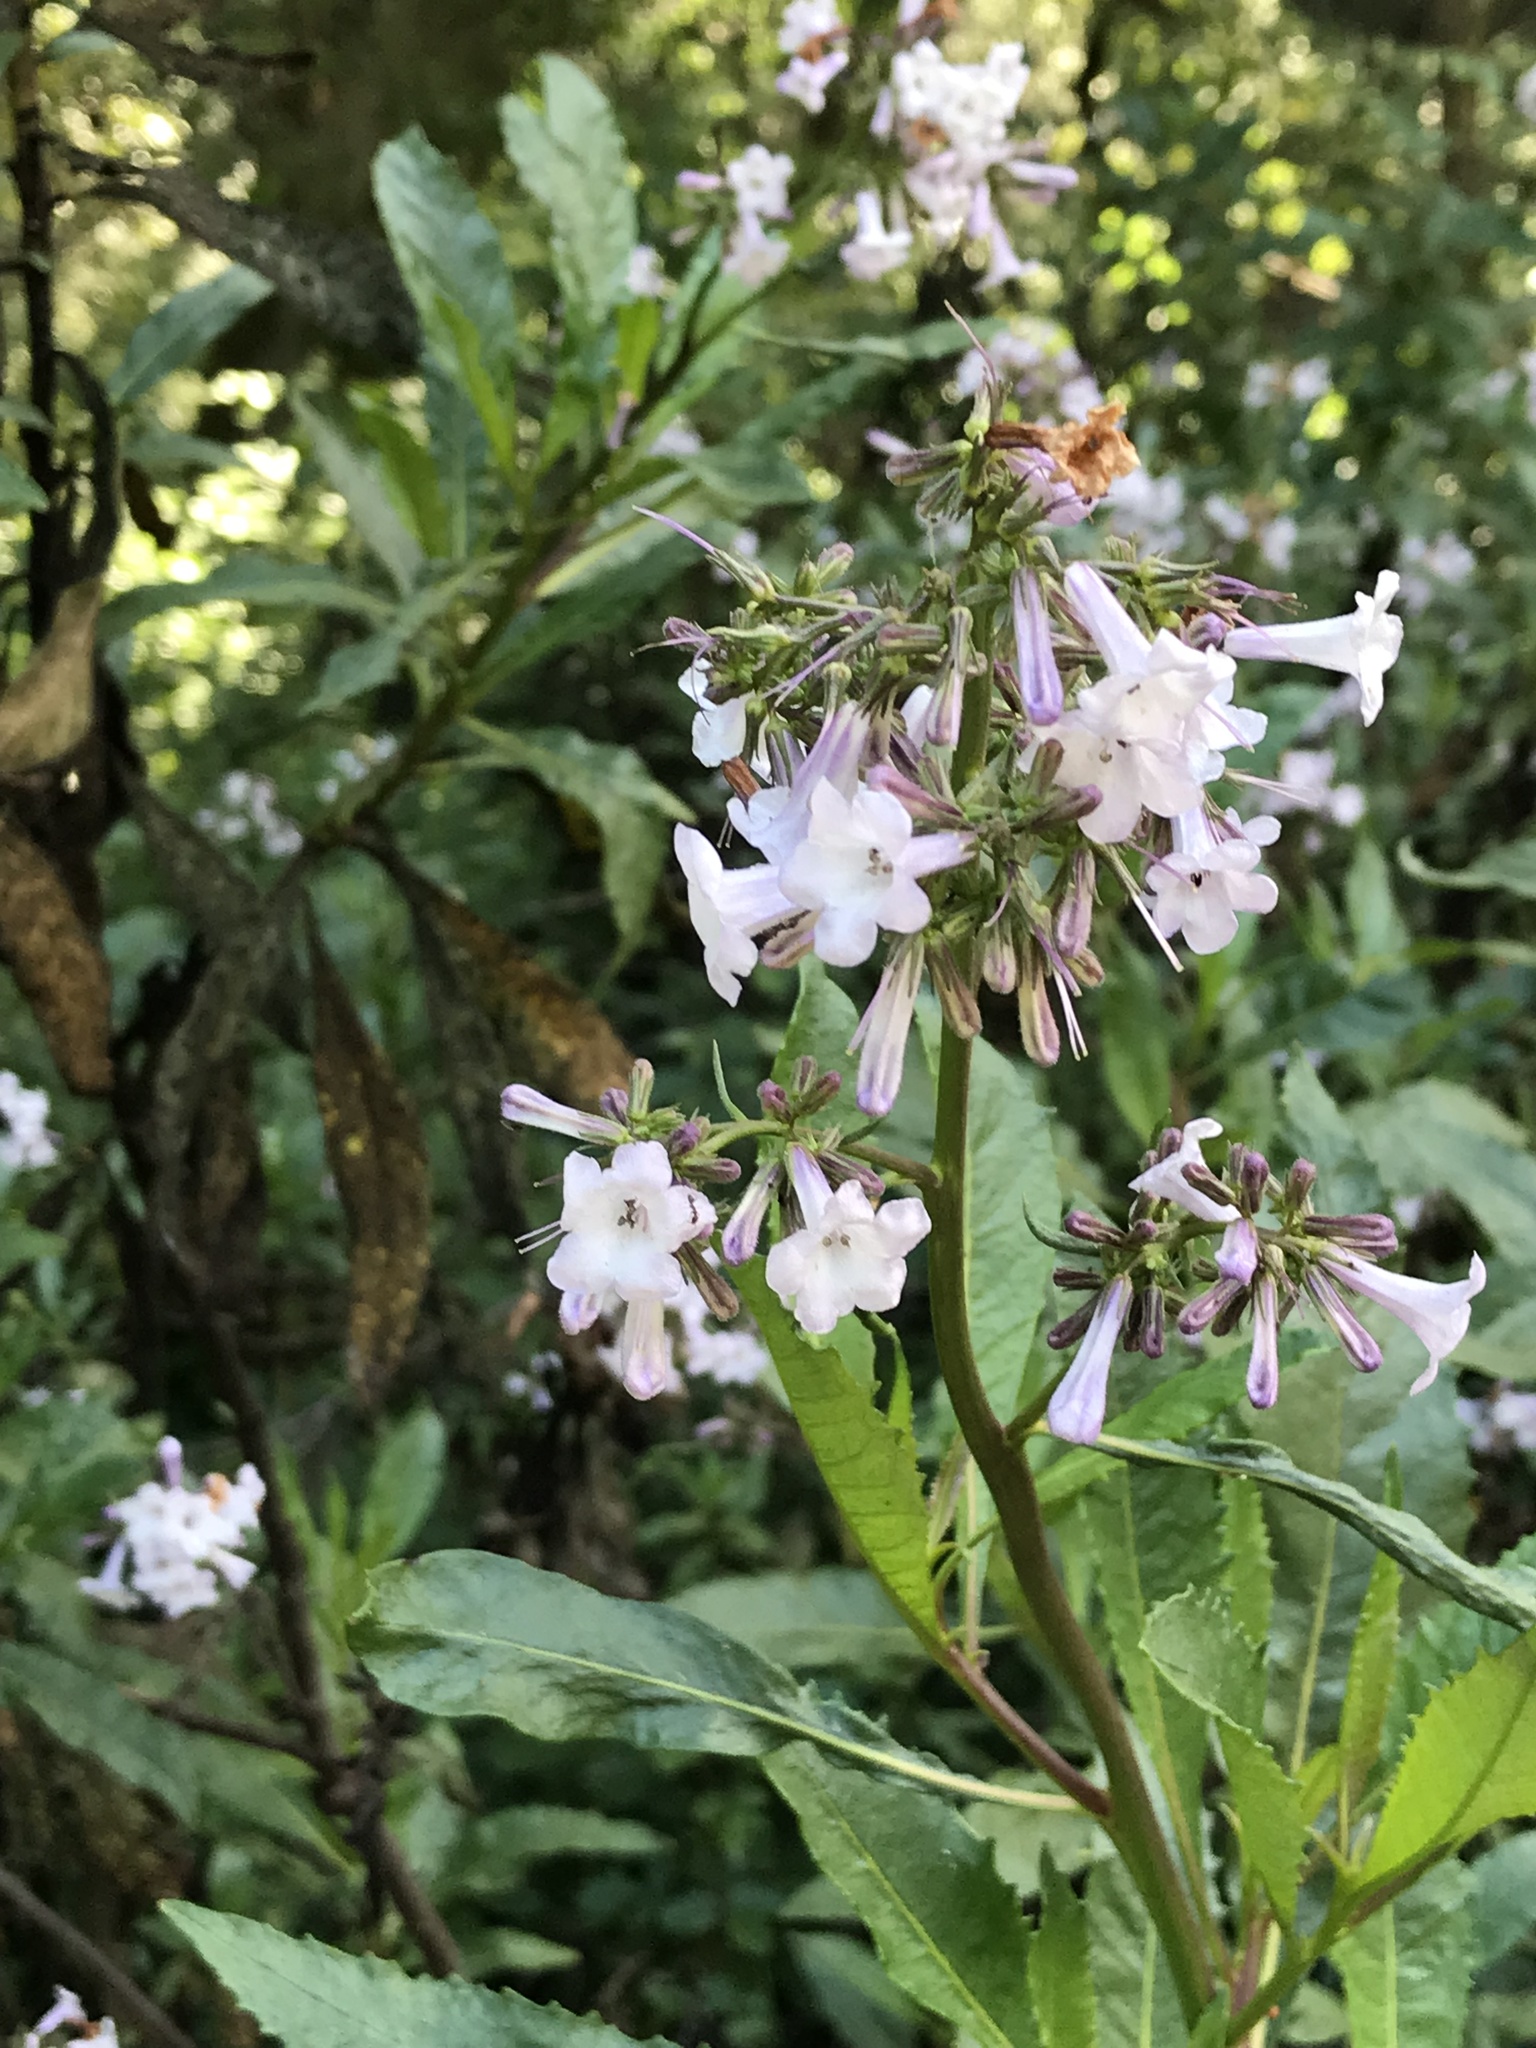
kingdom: Plantae
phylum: Tracheophyta
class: Magnoliopsida
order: Boraginales
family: Namaceae
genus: Eriodictyon
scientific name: Eriodictyon californicum
